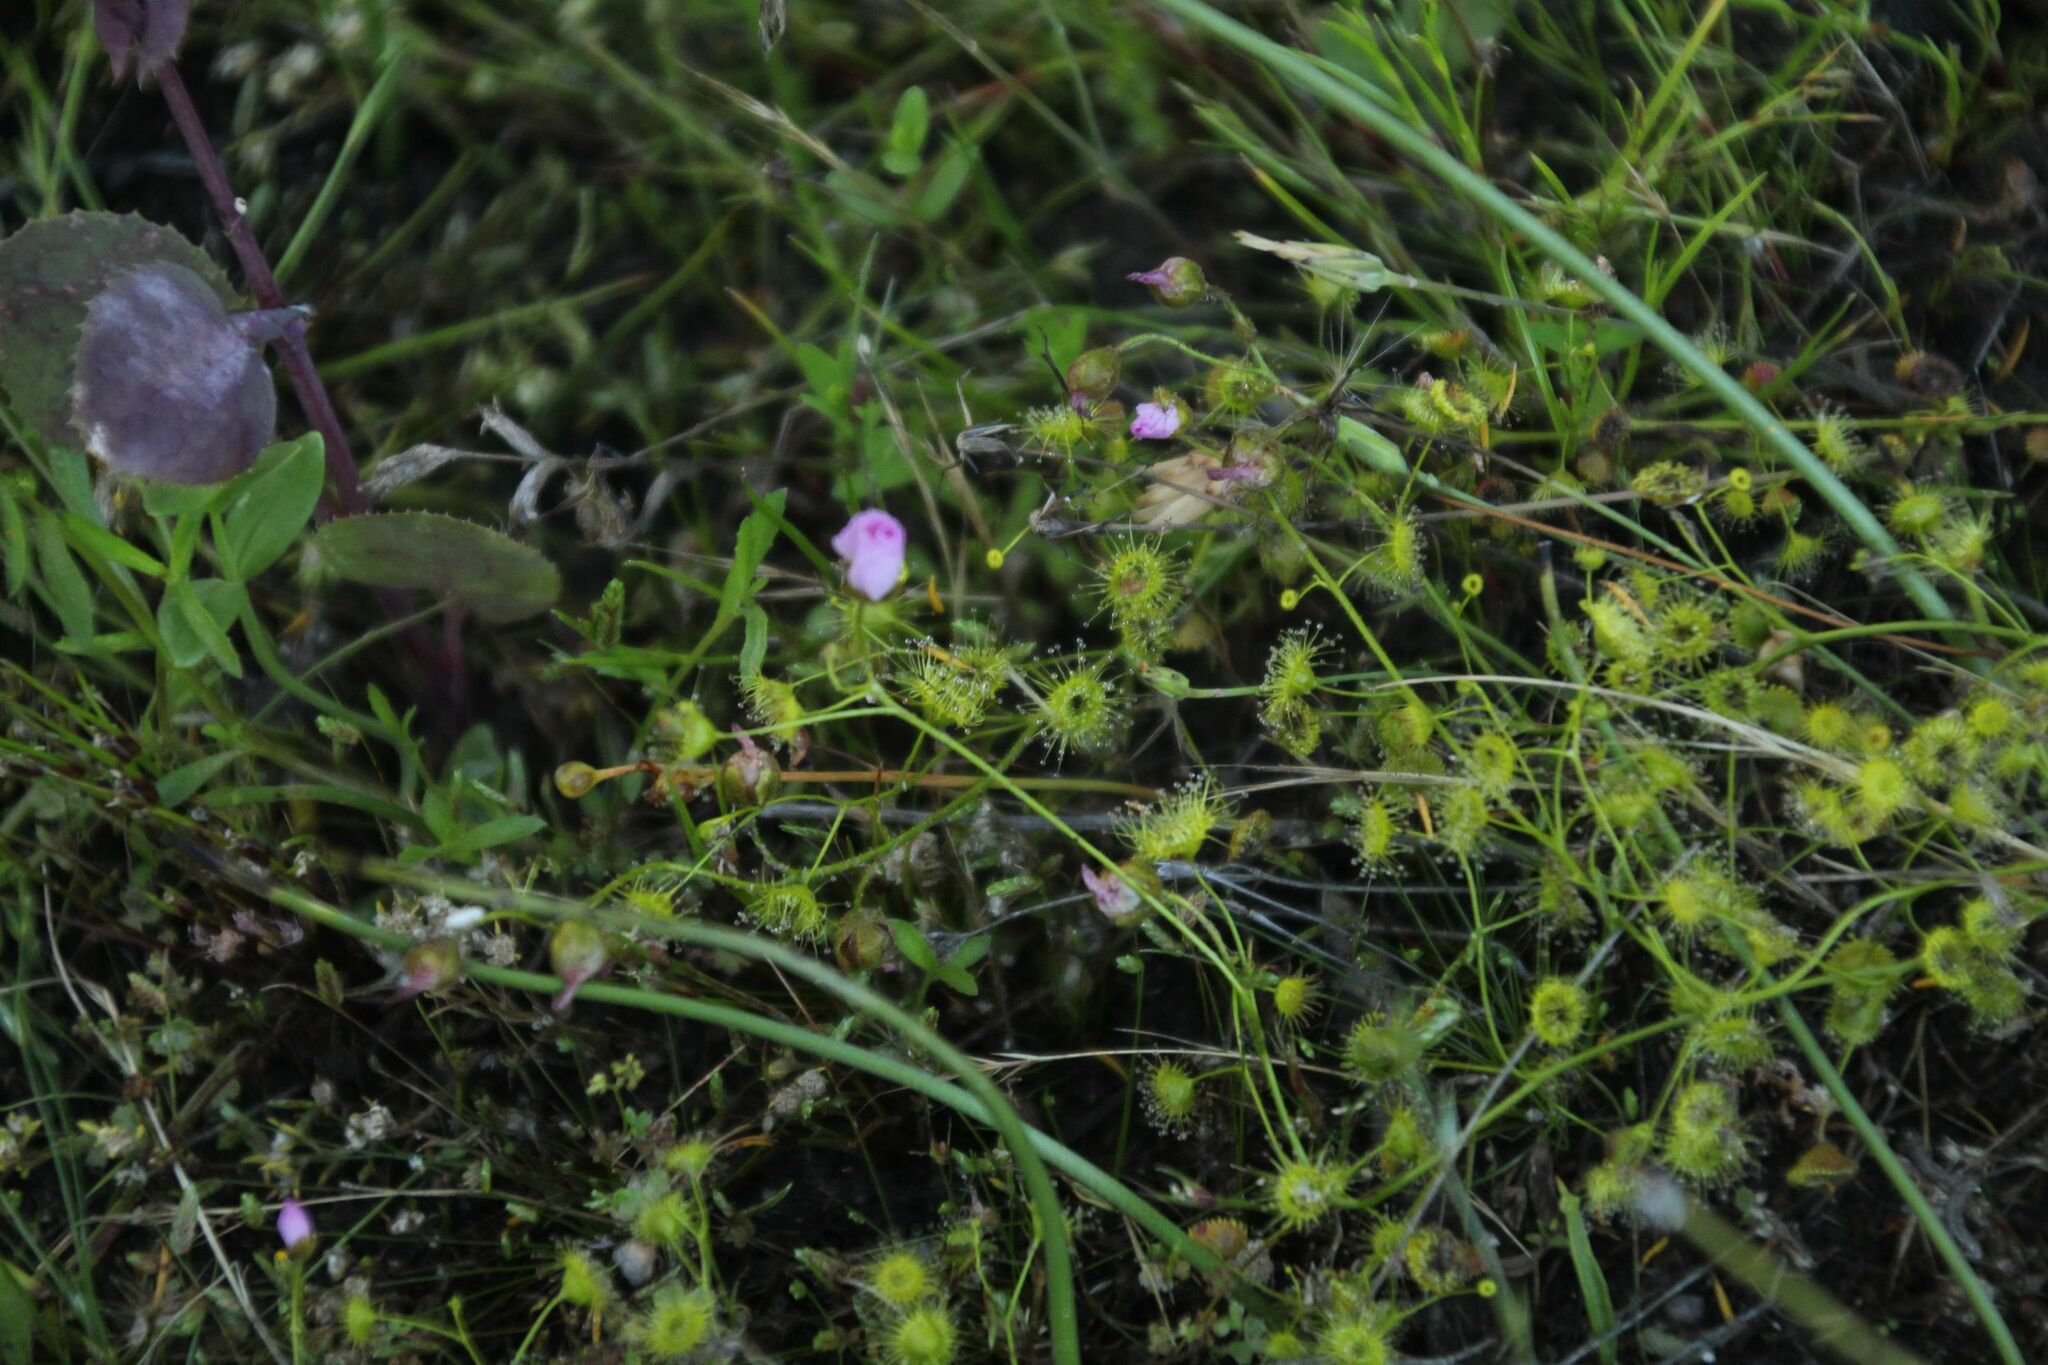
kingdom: Plantae
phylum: Tracheophyta
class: Magnoliopsida
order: Caryophyllales
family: Droseraceae
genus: Drosera
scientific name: Drosera stricticaulis
